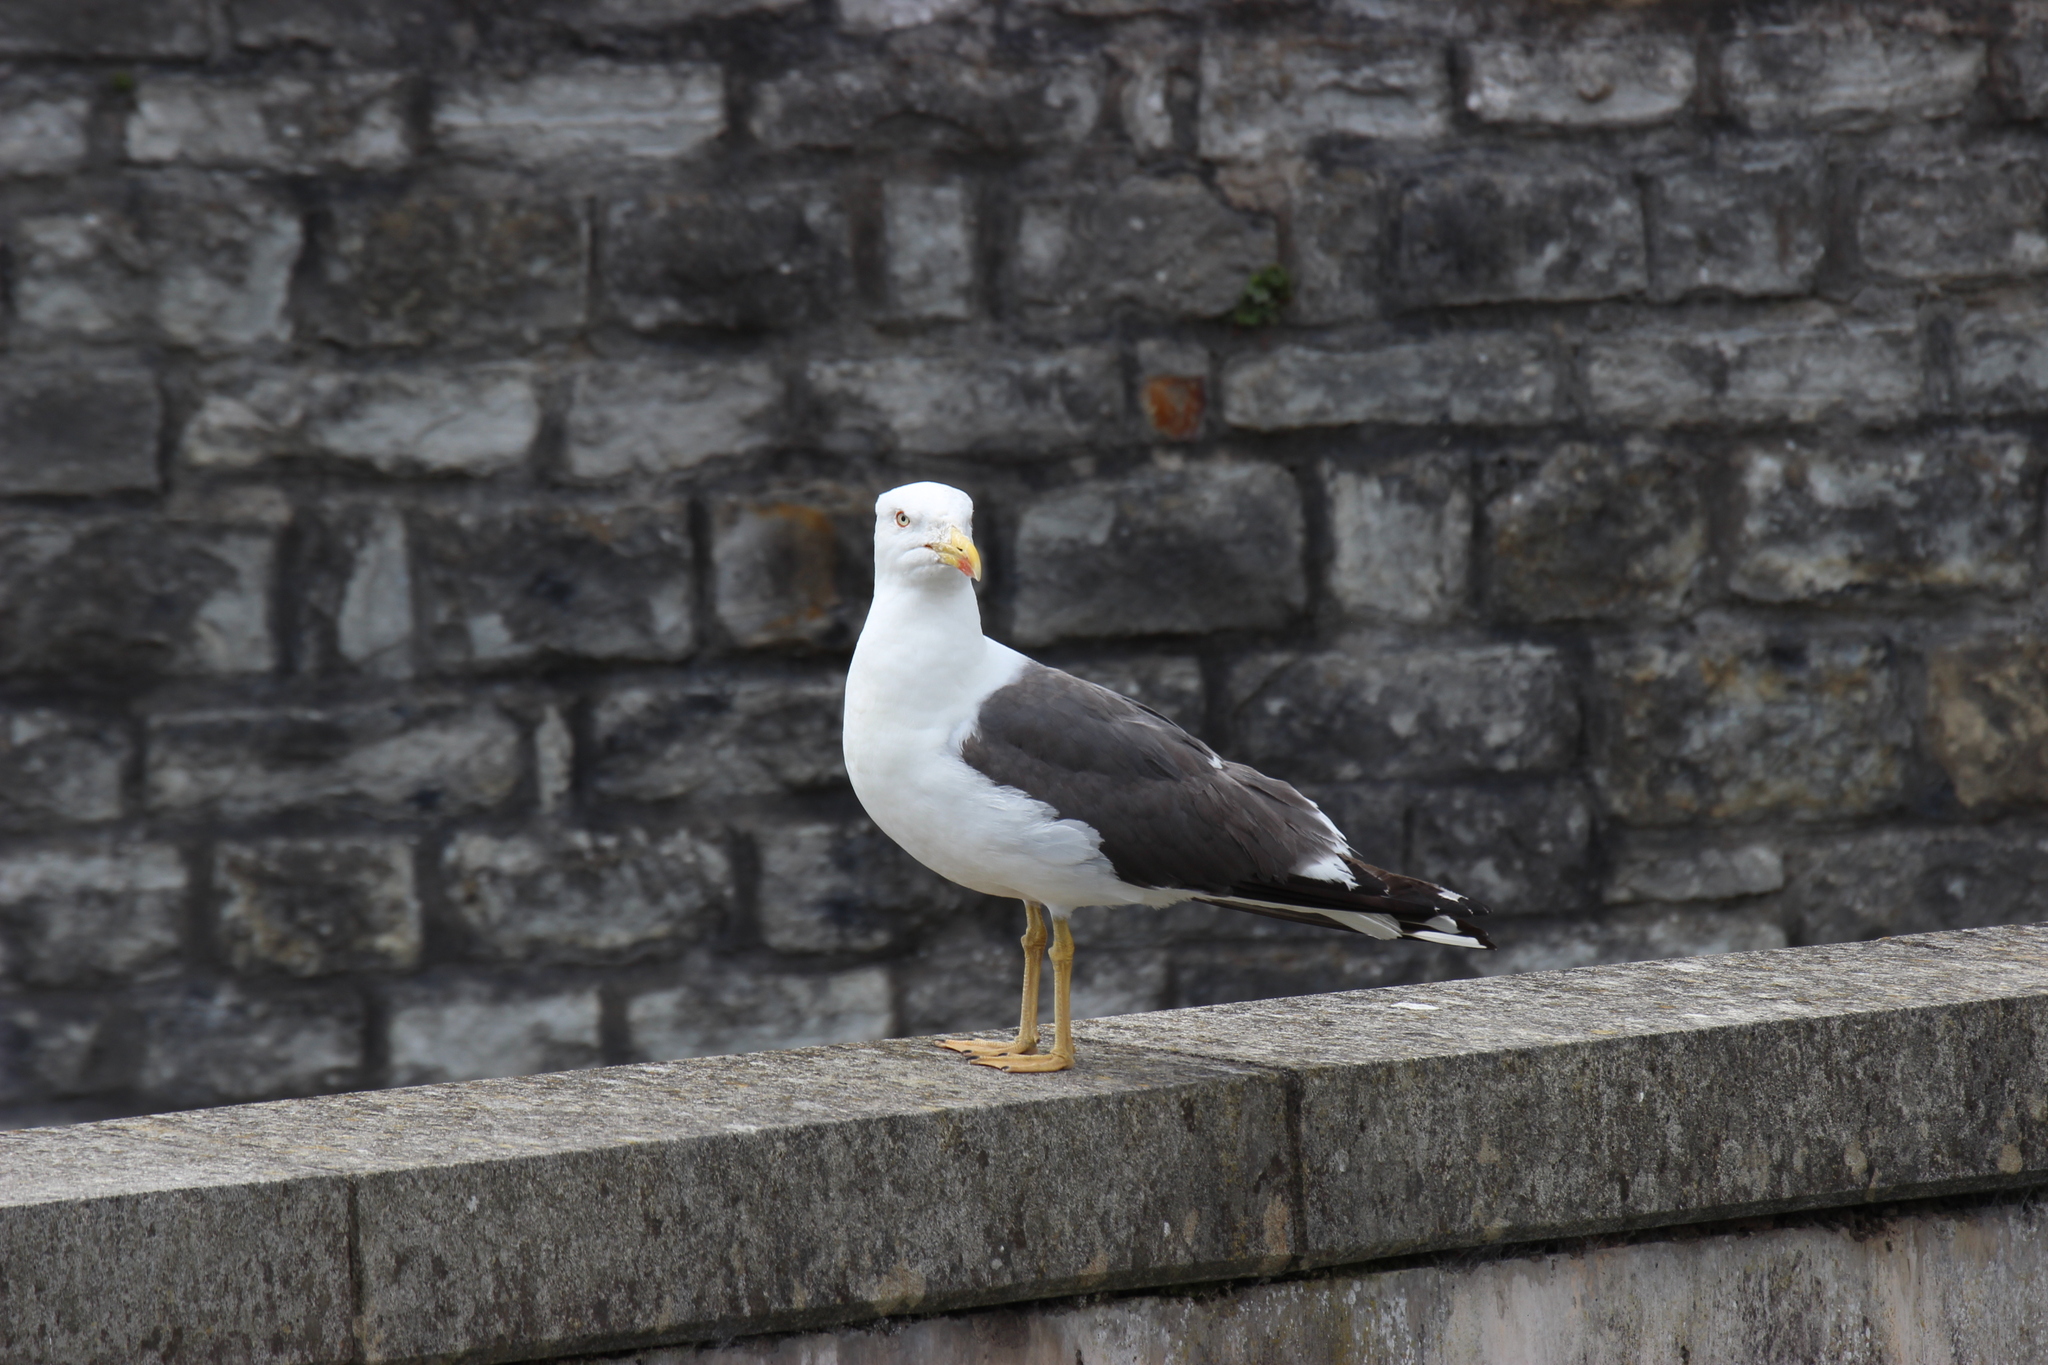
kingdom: Animalia
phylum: Chordata
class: Aves
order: Charadriiformes
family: Laridae
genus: Larus
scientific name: Larus fuscus
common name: Lesser black-backed gull
